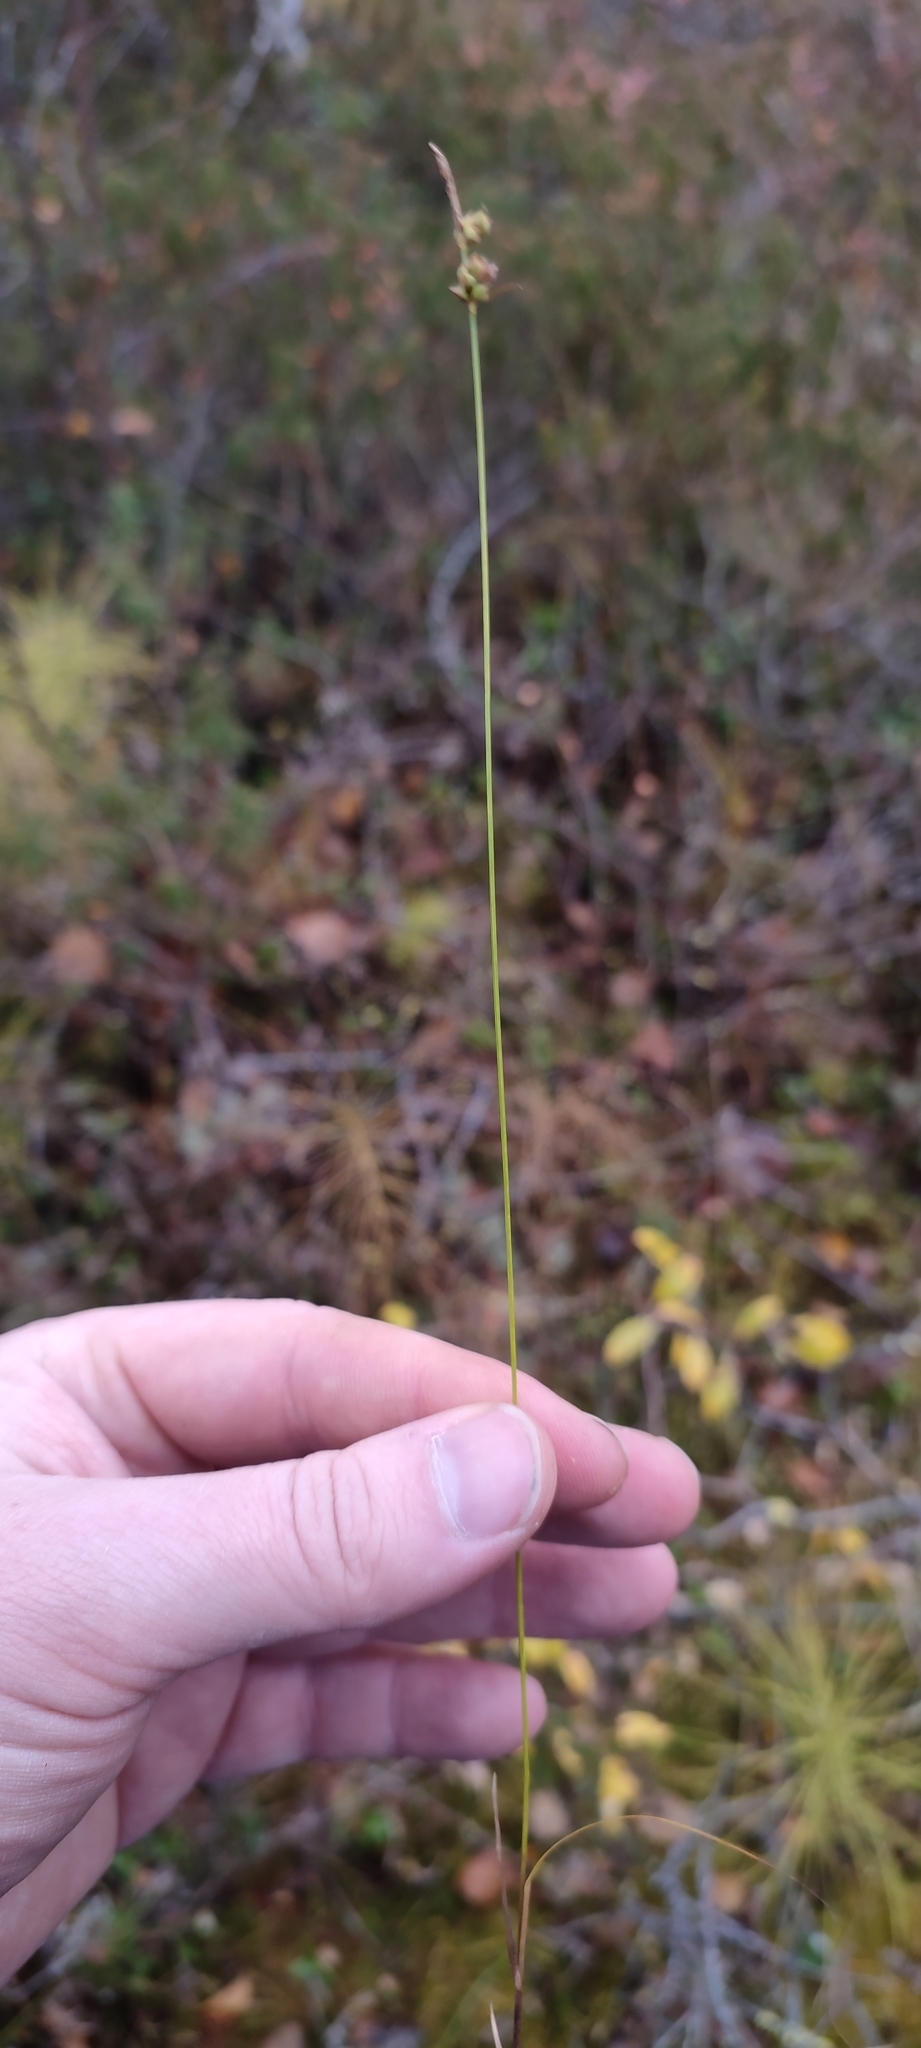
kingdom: Plantae
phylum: Tracheophyta
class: Liliopsida
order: Poales
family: Cyperaceae
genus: Carex
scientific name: Carex globularis
